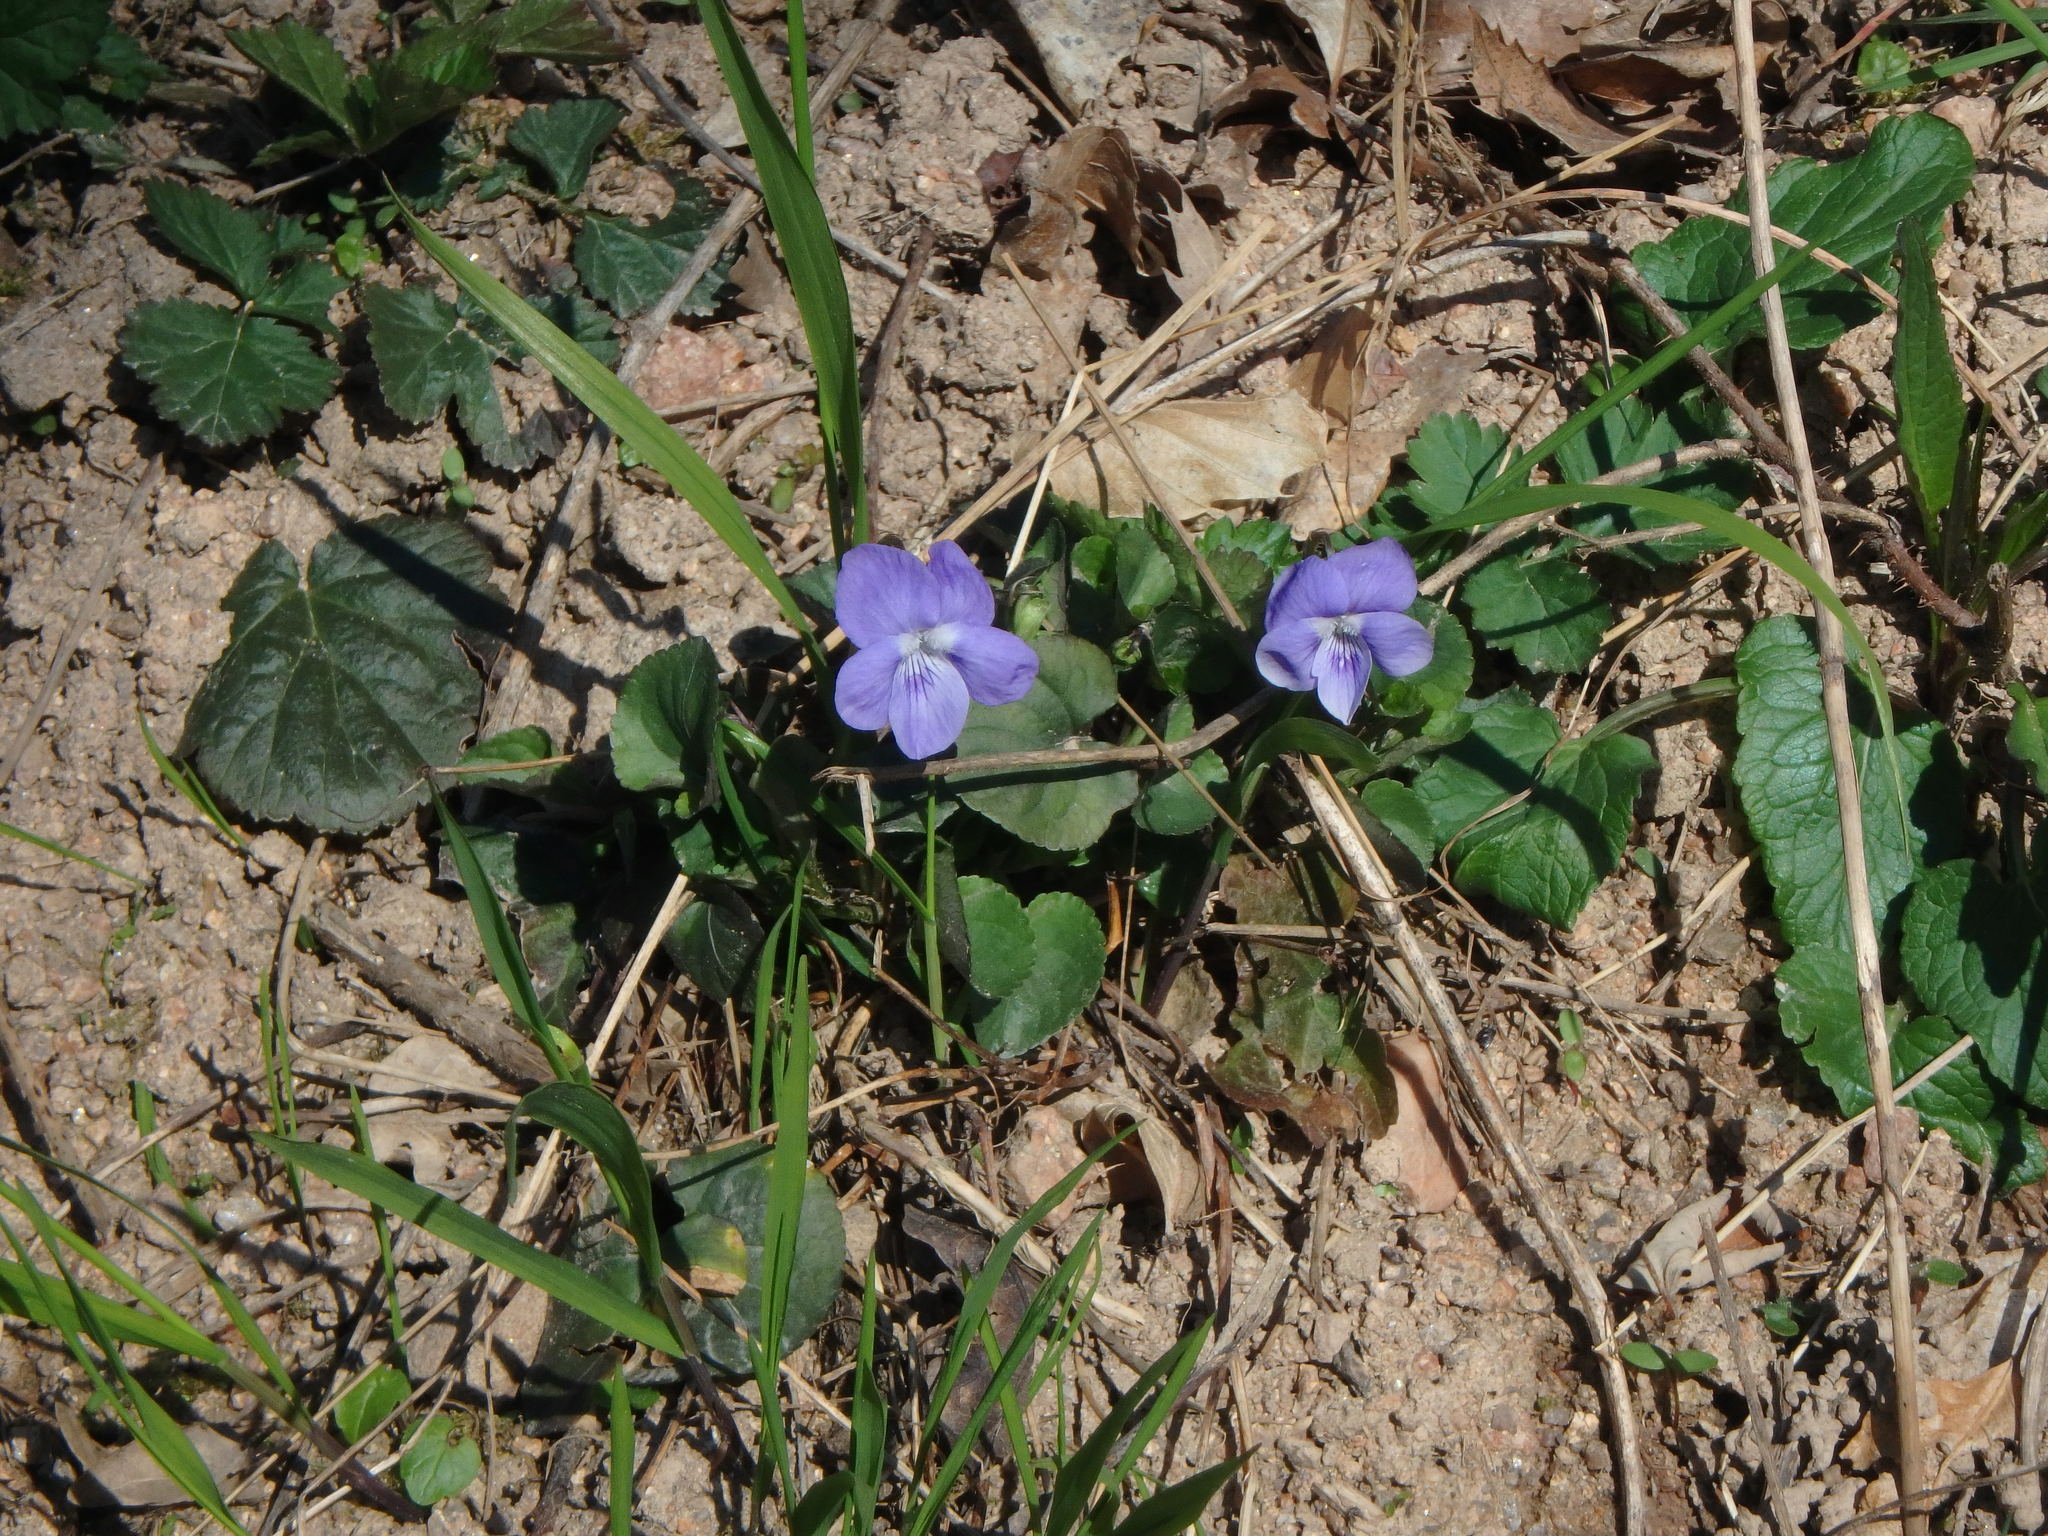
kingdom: Plantae
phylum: Tracheophyta
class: Magnoliopsida
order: Malpighiales
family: Violaceae
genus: Viola
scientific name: Viola riviniana
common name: Common dog-violet
